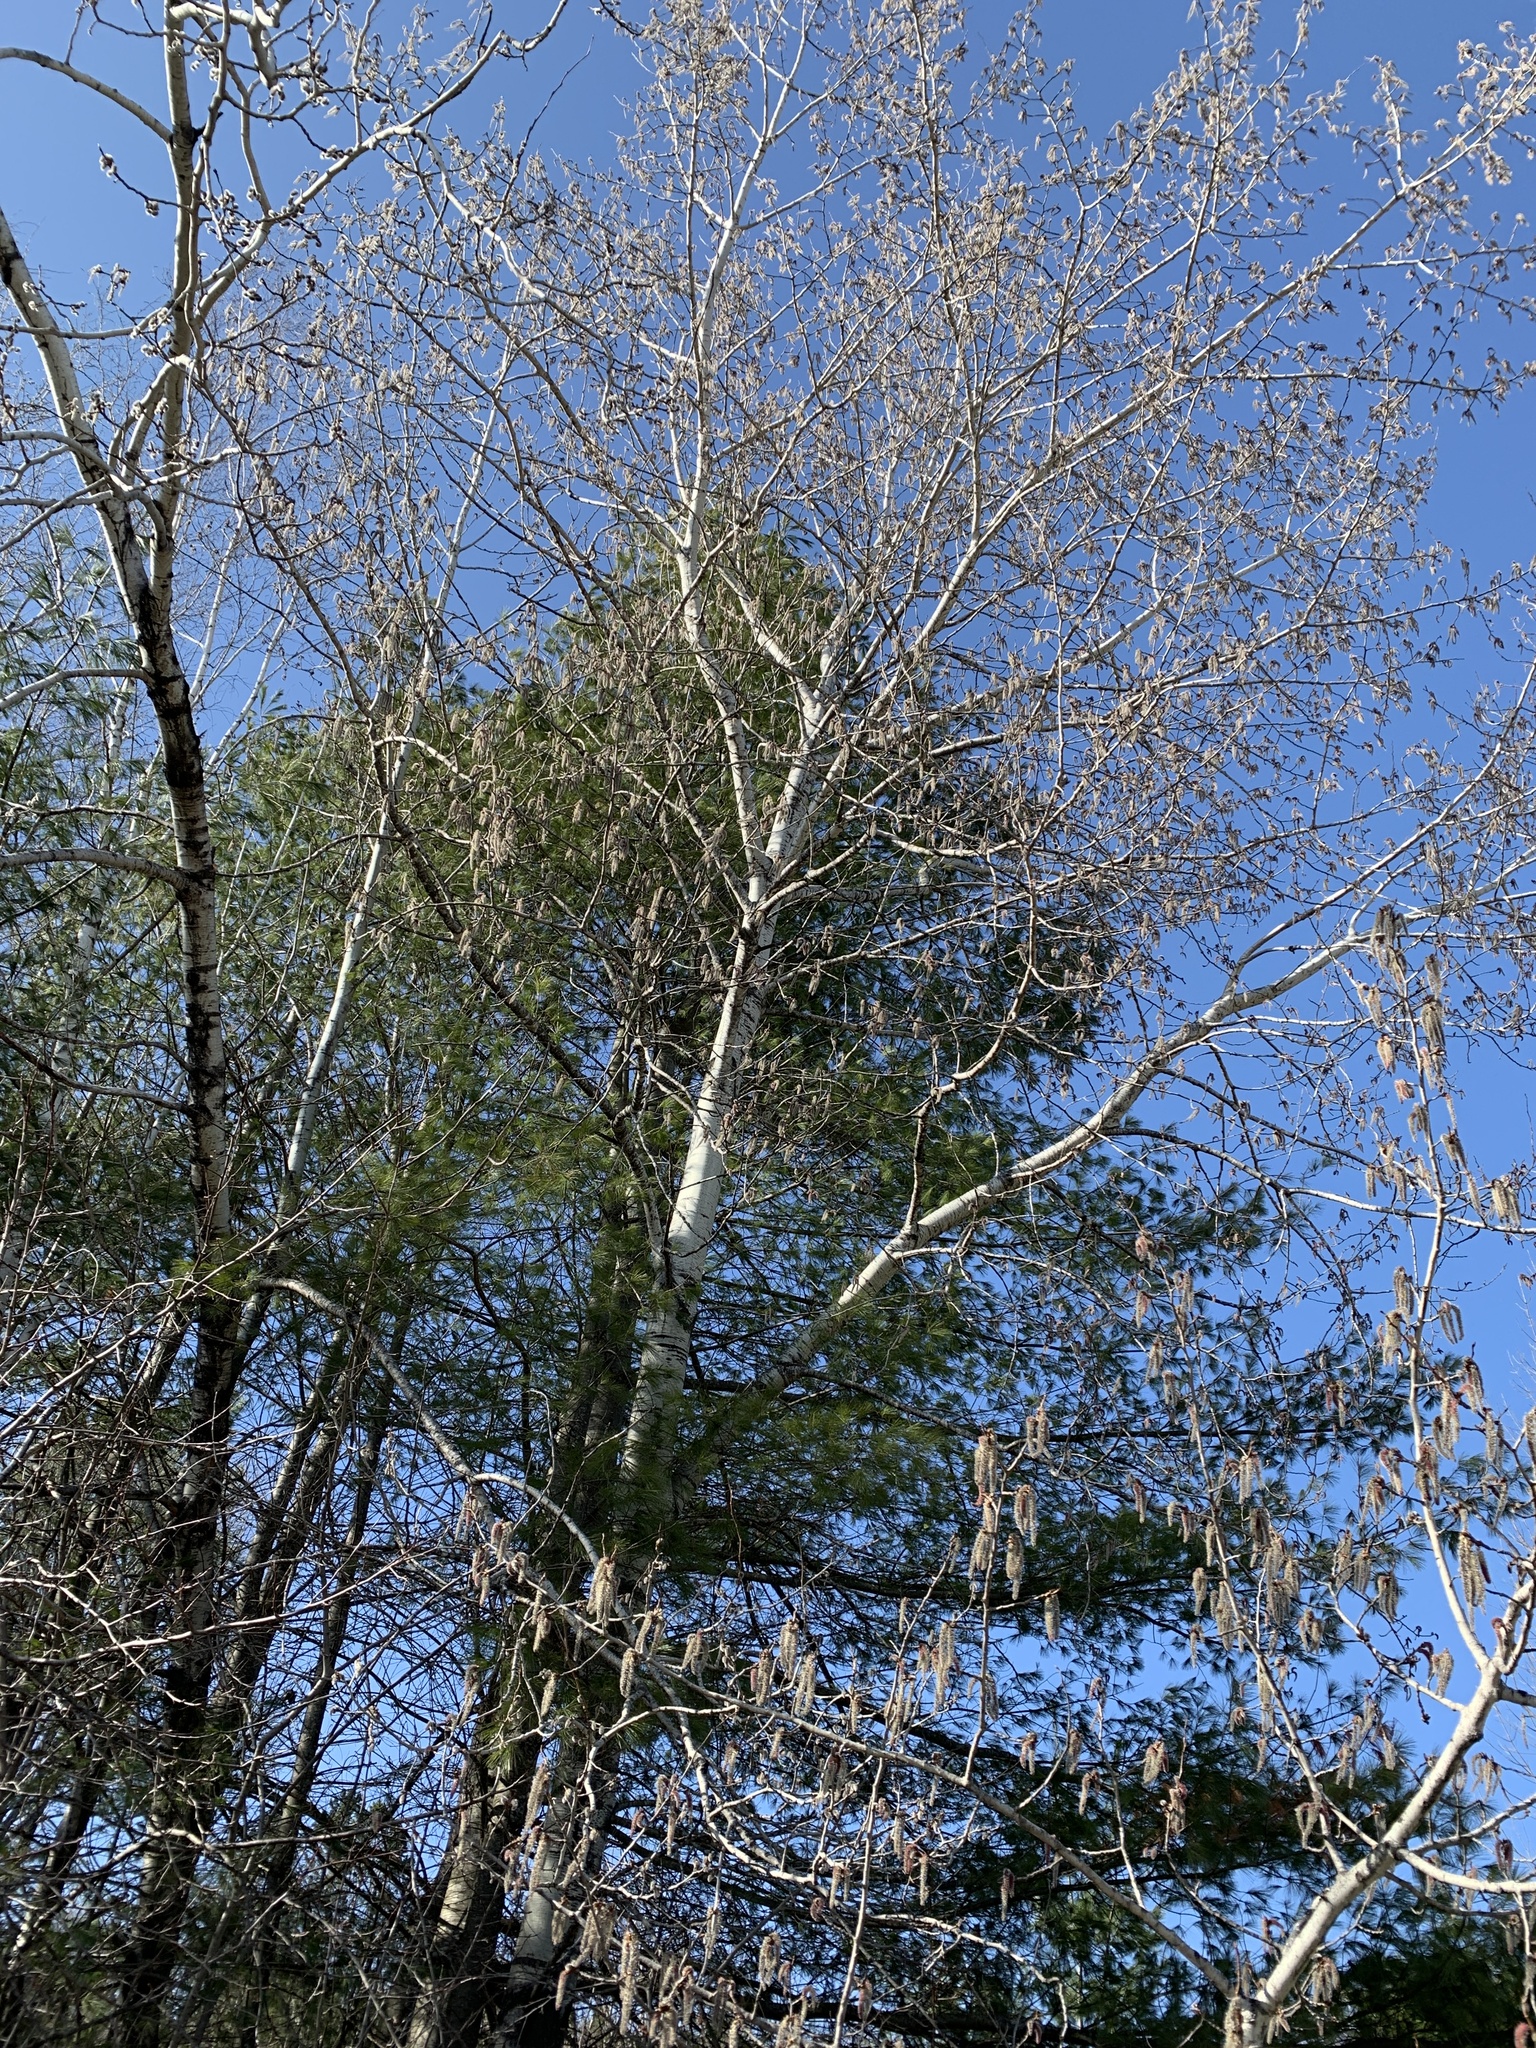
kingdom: Plantae
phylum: Tracheophyta
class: Magnoliopsida
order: Malpighiales
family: Salicaceae
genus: Populus
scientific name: Populus tremuloides
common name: Quaking aspen
